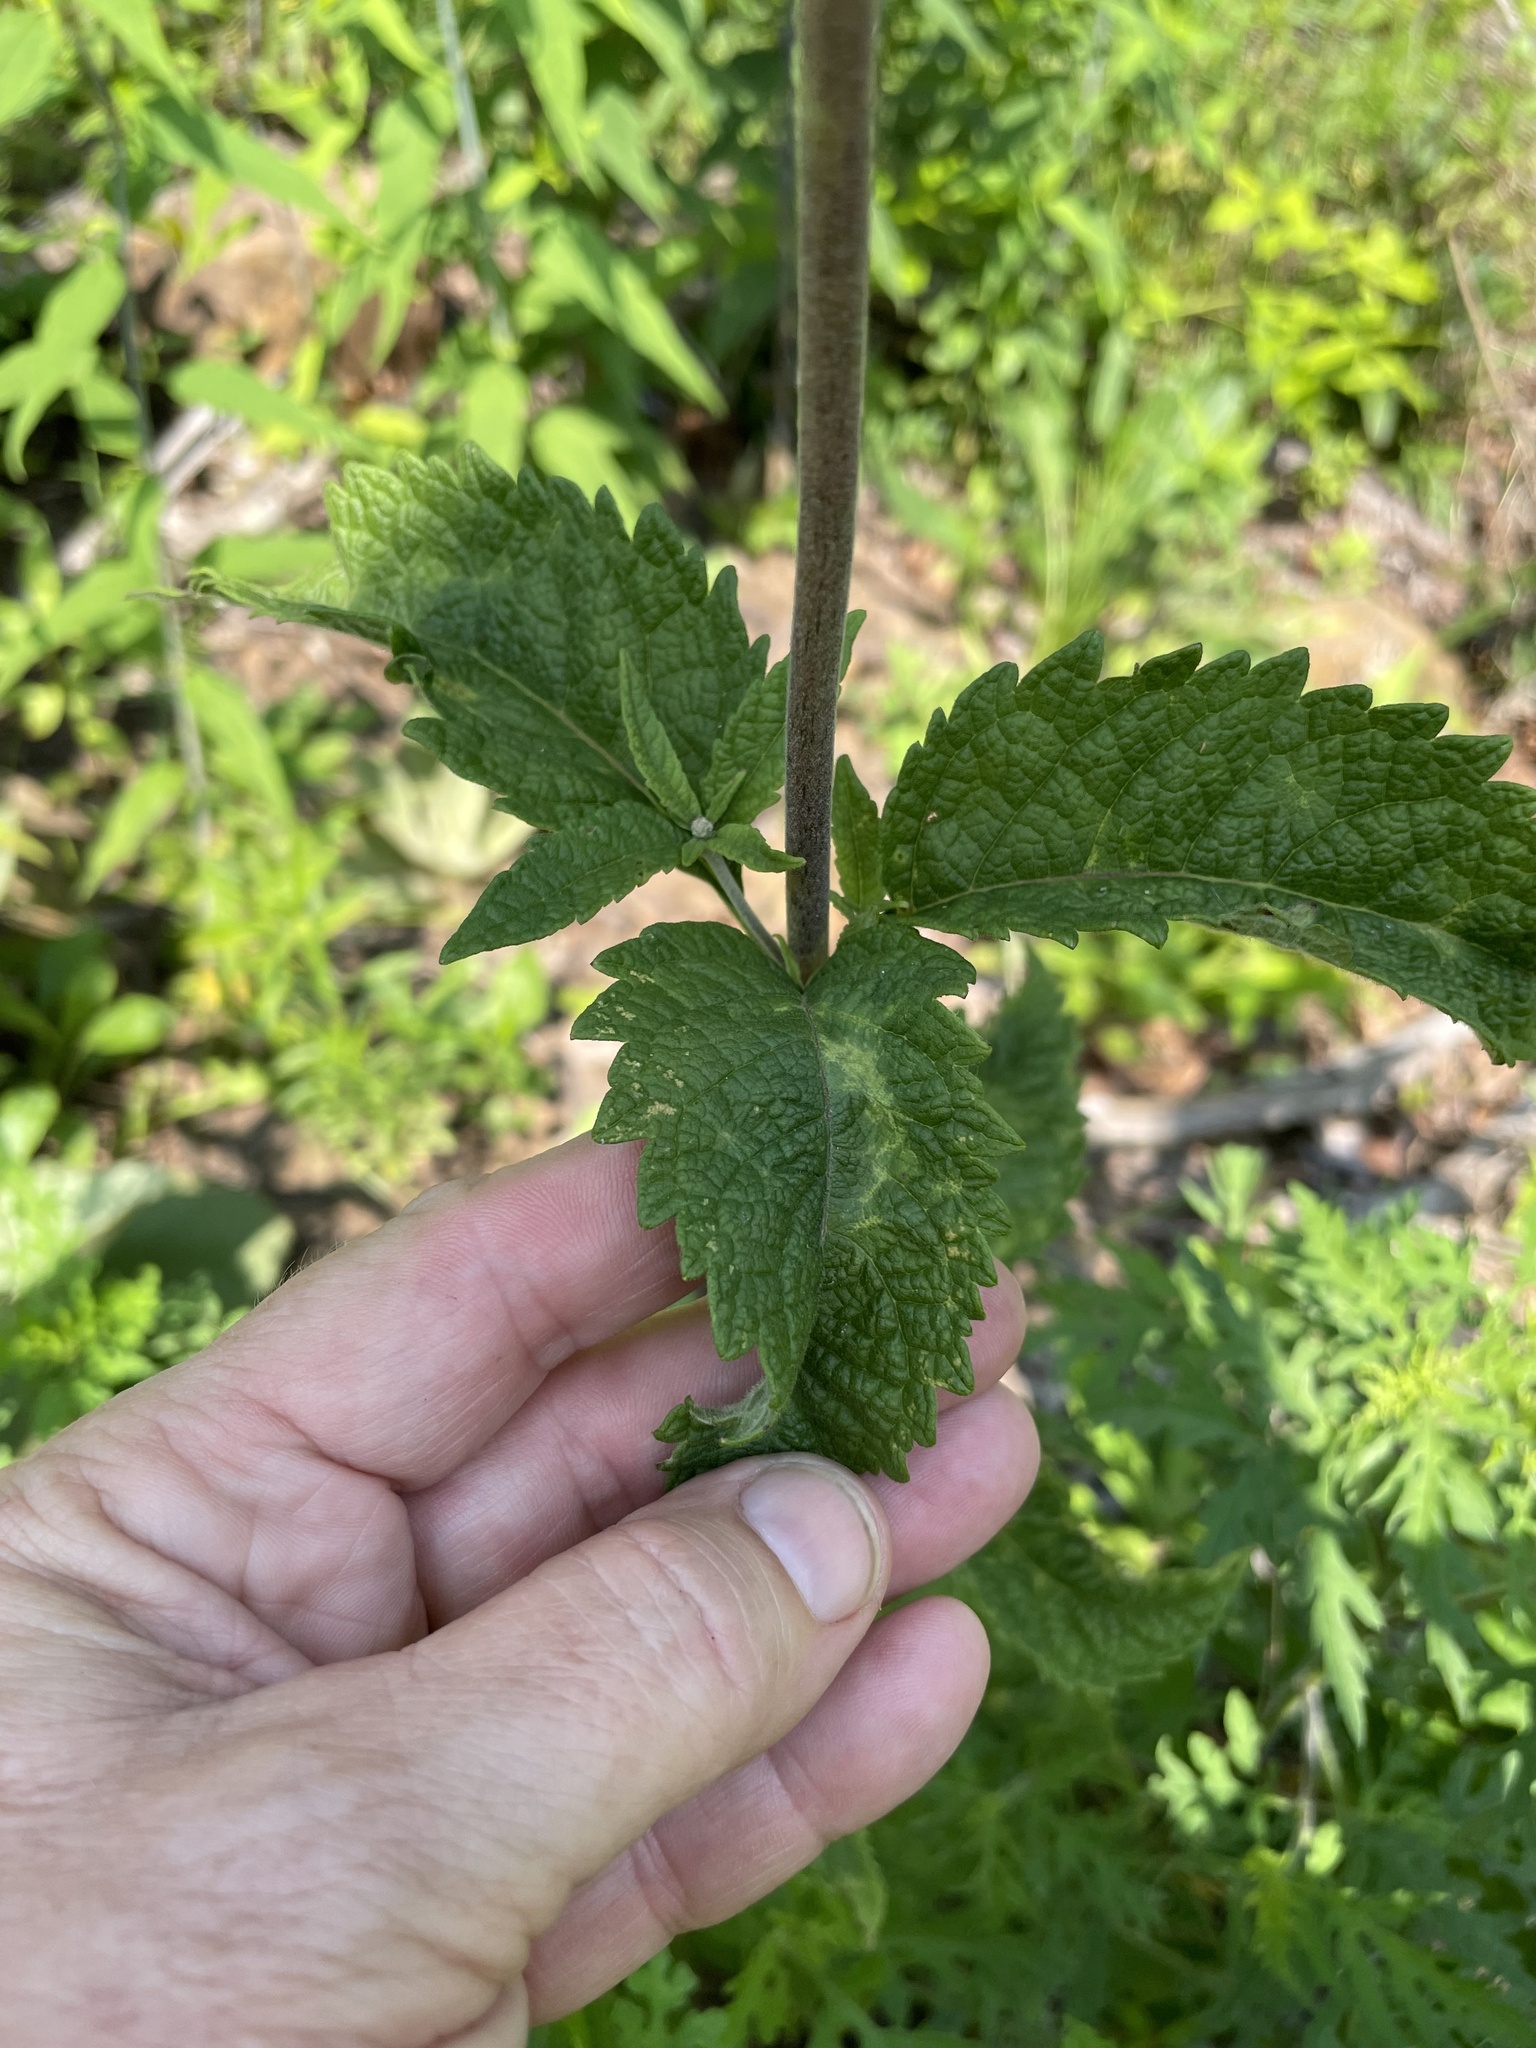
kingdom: Plantae
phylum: Tracheophyta
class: Magnoliopsida
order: Asterales
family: Asteraceae
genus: Eutrochium
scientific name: Eutrochium purpureum
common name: Gravelroot
